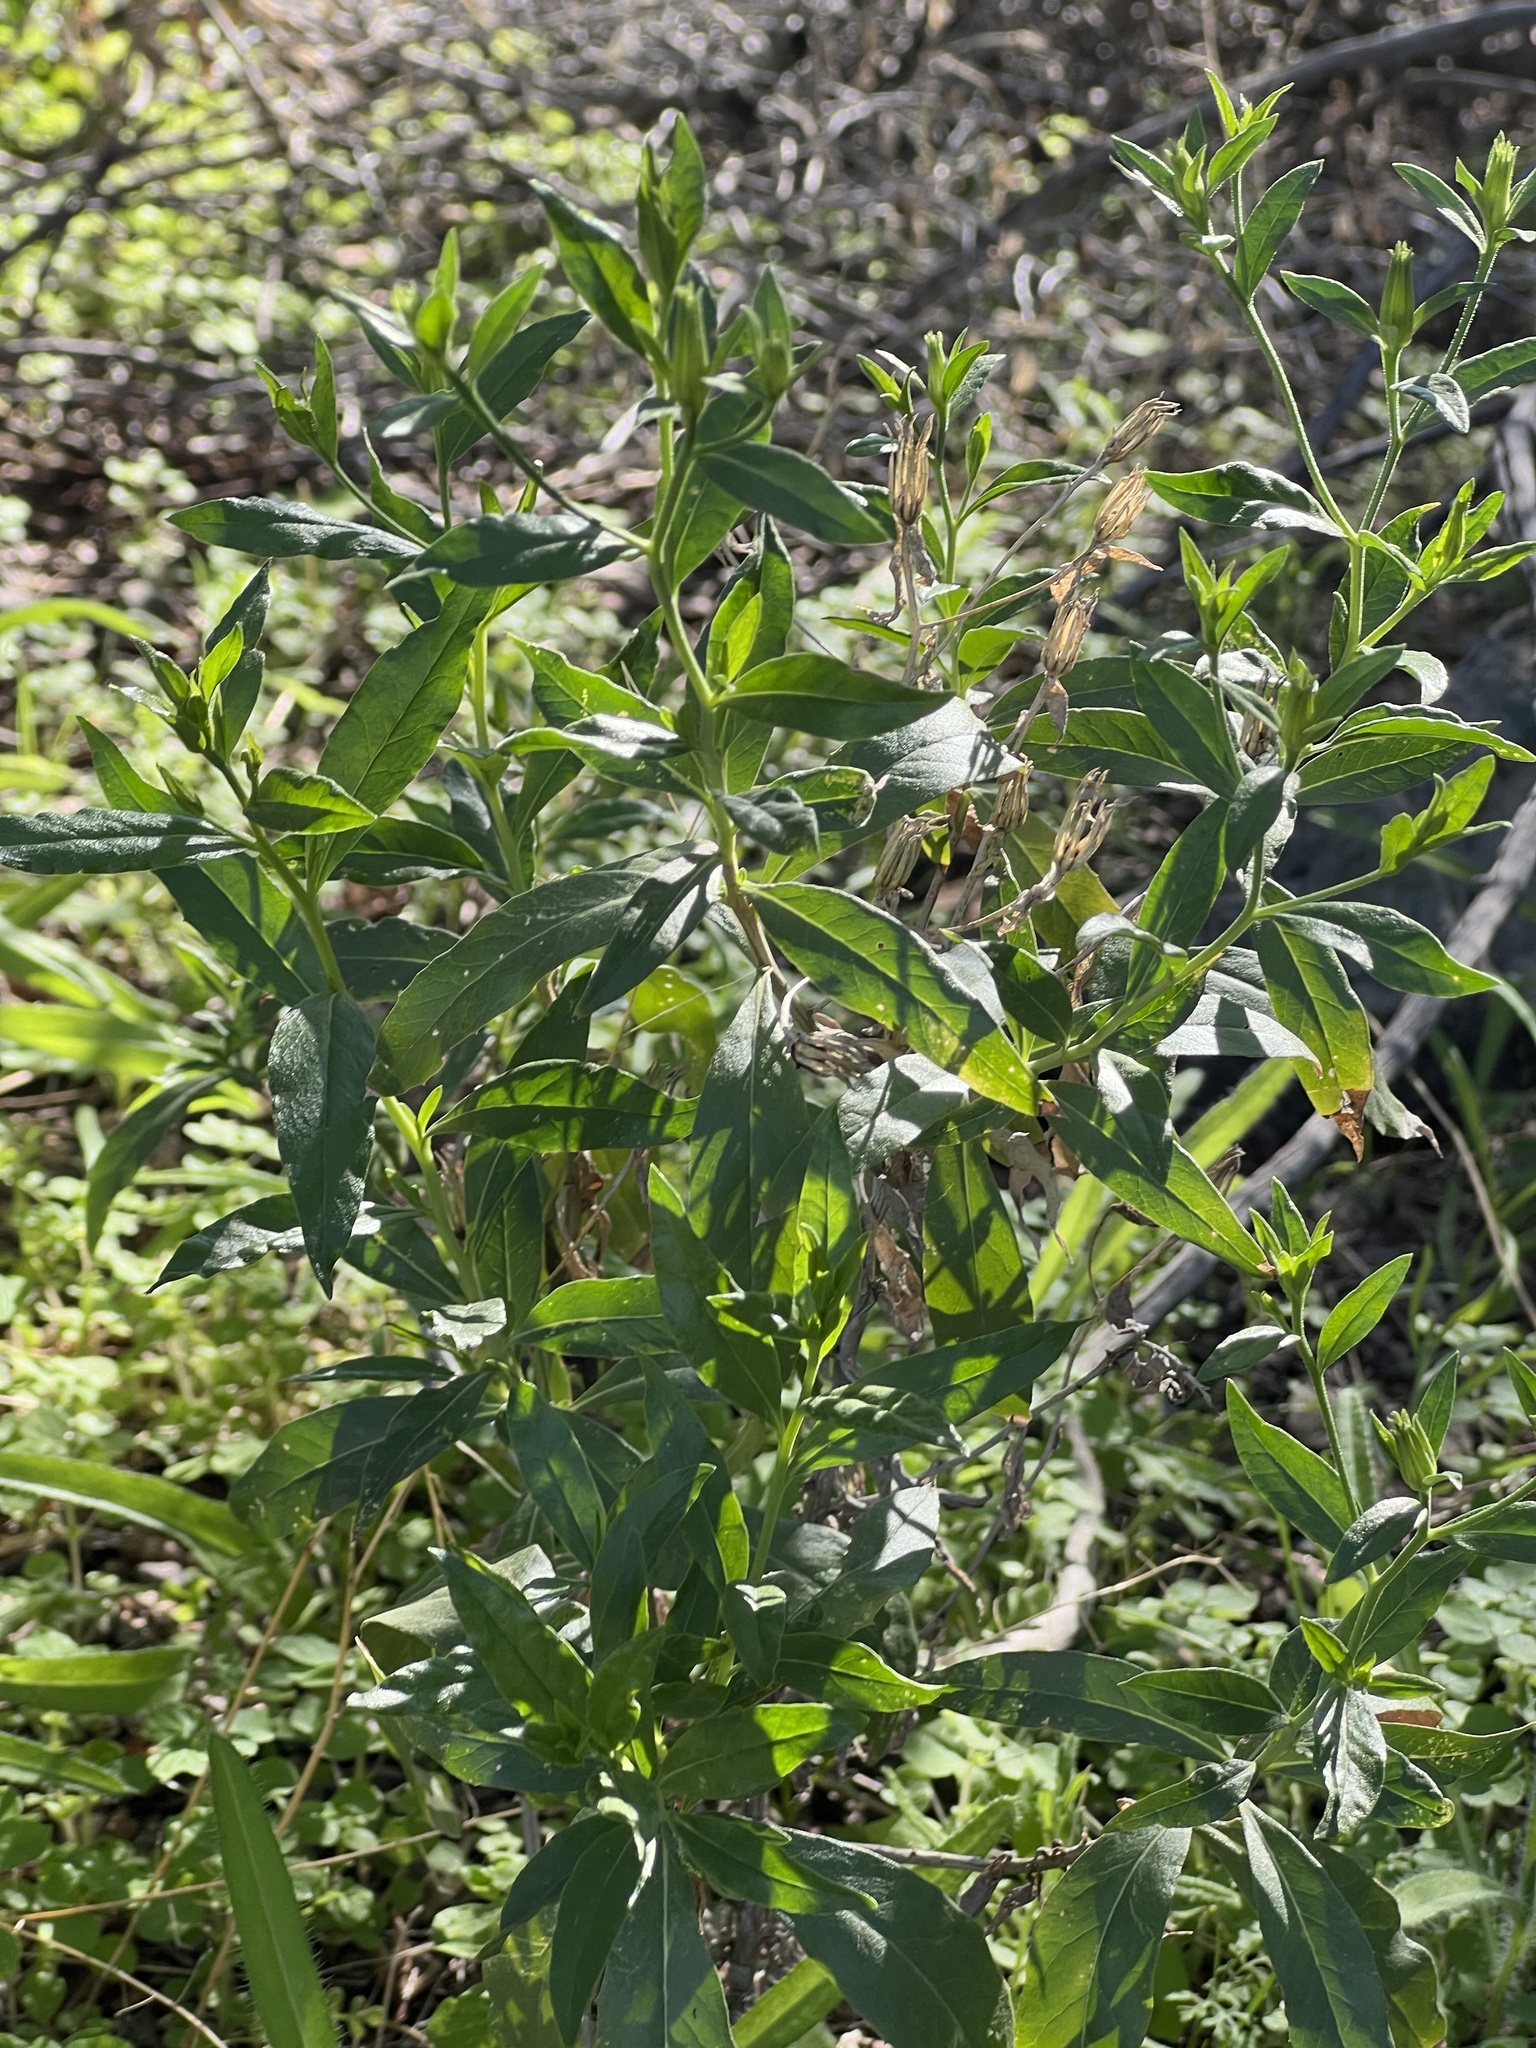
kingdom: Plantae
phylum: Tracheophyta
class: Magnoliopsida
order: Asterales
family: Asteraceae
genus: Trixis
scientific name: Trixis californica
